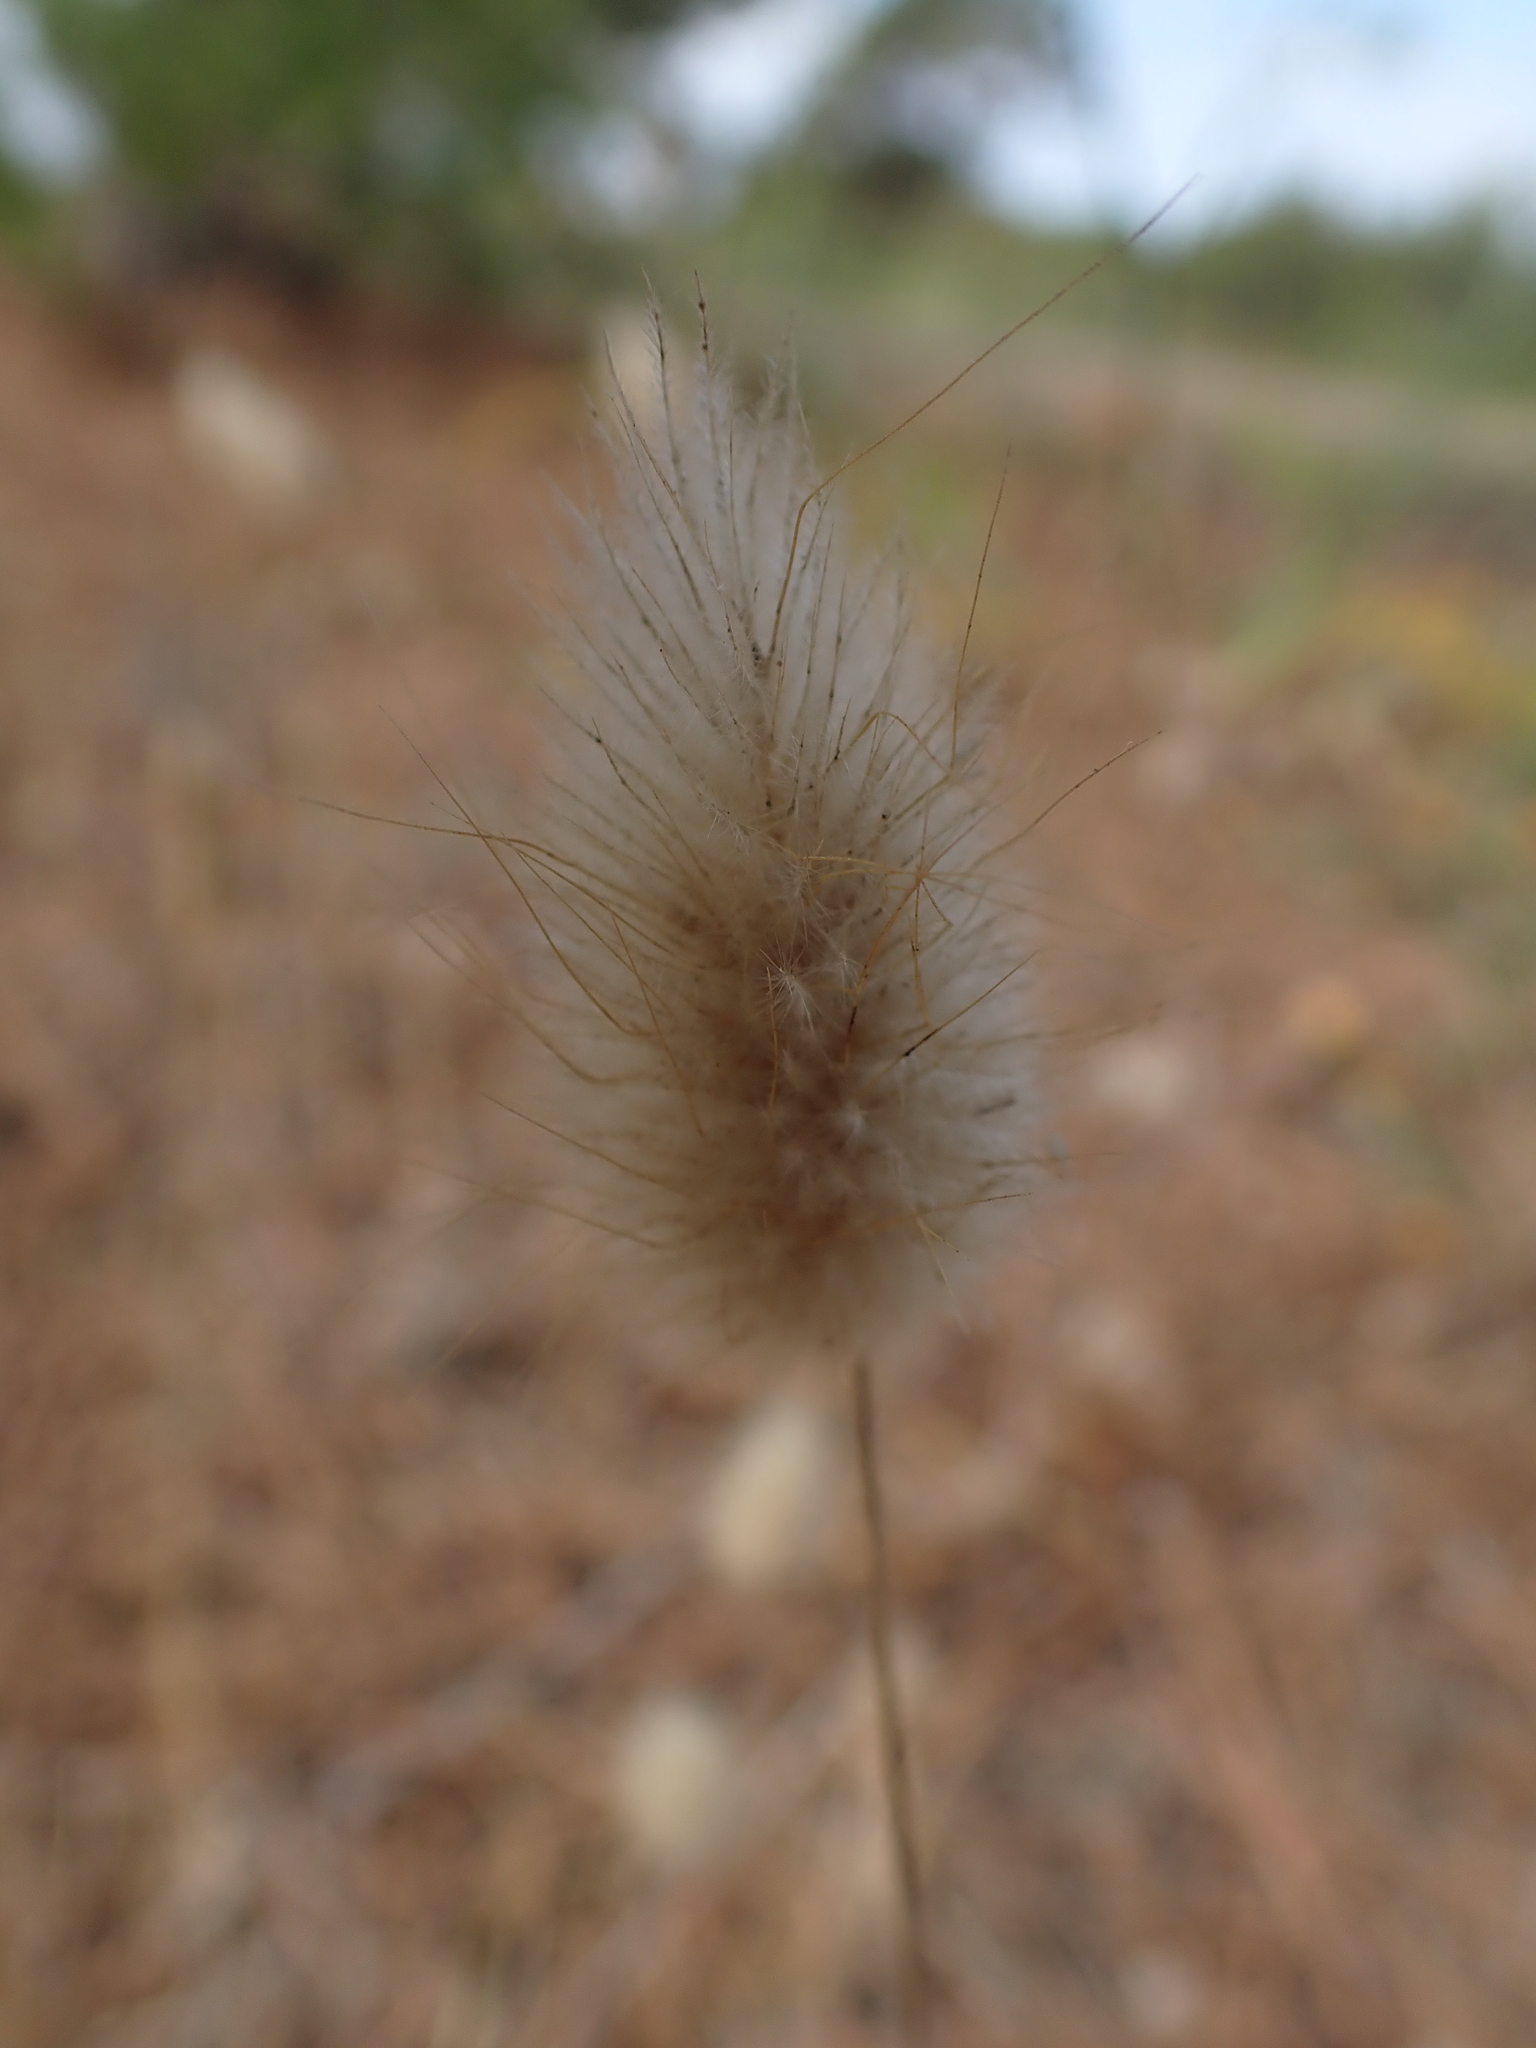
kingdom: Plantae
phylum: Tracheophyta
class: Liliopsida
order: Poales
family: Poaceae
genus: Lagurus
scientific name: Lagurus ovatus
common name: Hare's-tail
